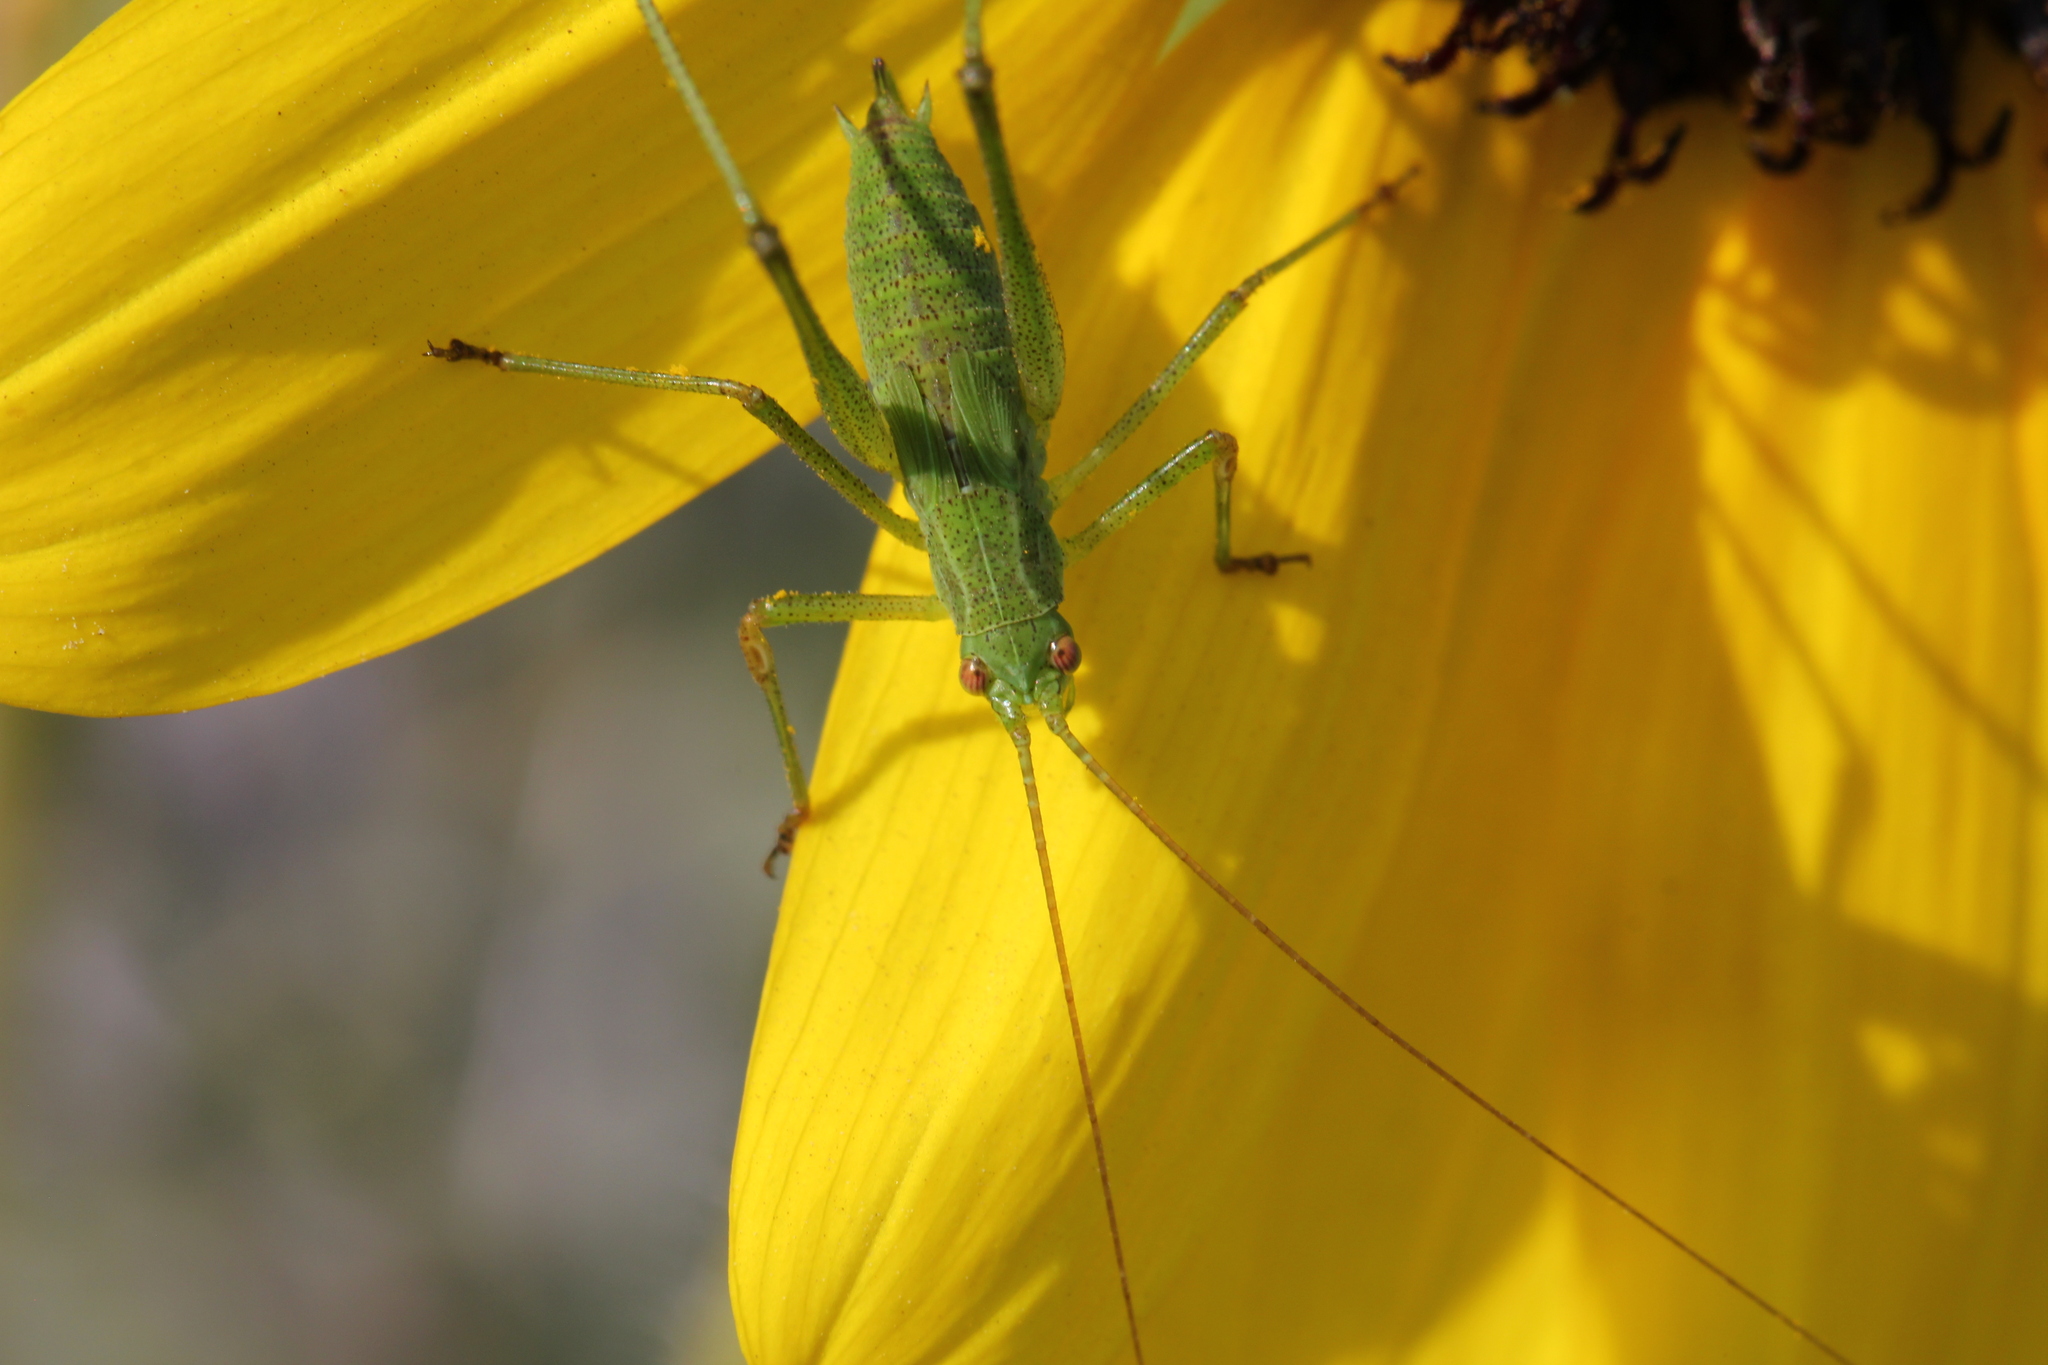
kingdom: Animalia
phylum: Arthropoda
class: Insecta
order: Orthoptera
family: Tettigoniidae
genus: Phaneroptera
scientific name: Phaneroptera falcata
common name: Sickle-bearing bush-cricket
